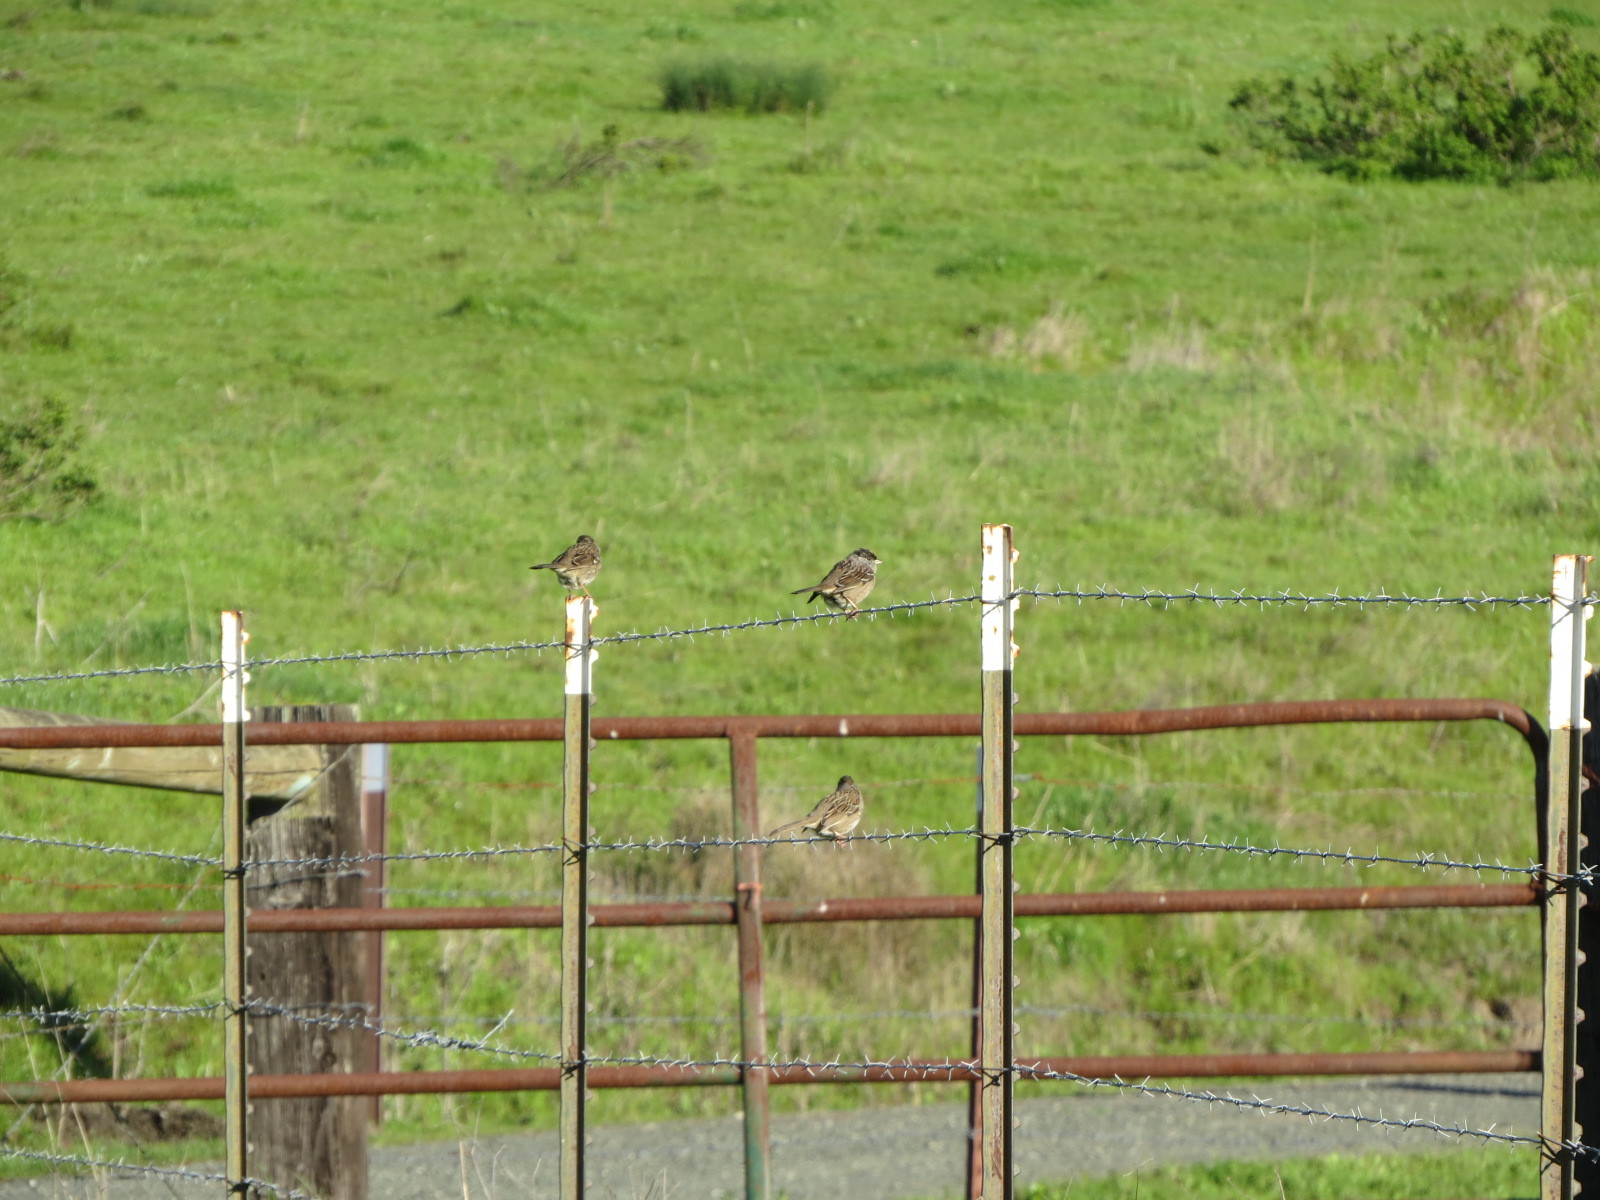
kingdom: Animalia
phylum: Chordata
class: Aves
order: Passeriformes
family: Passerellidae
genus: Zonotrichia
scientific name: Zonotrichia atricapilla
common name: Golden-crowned sparrow
